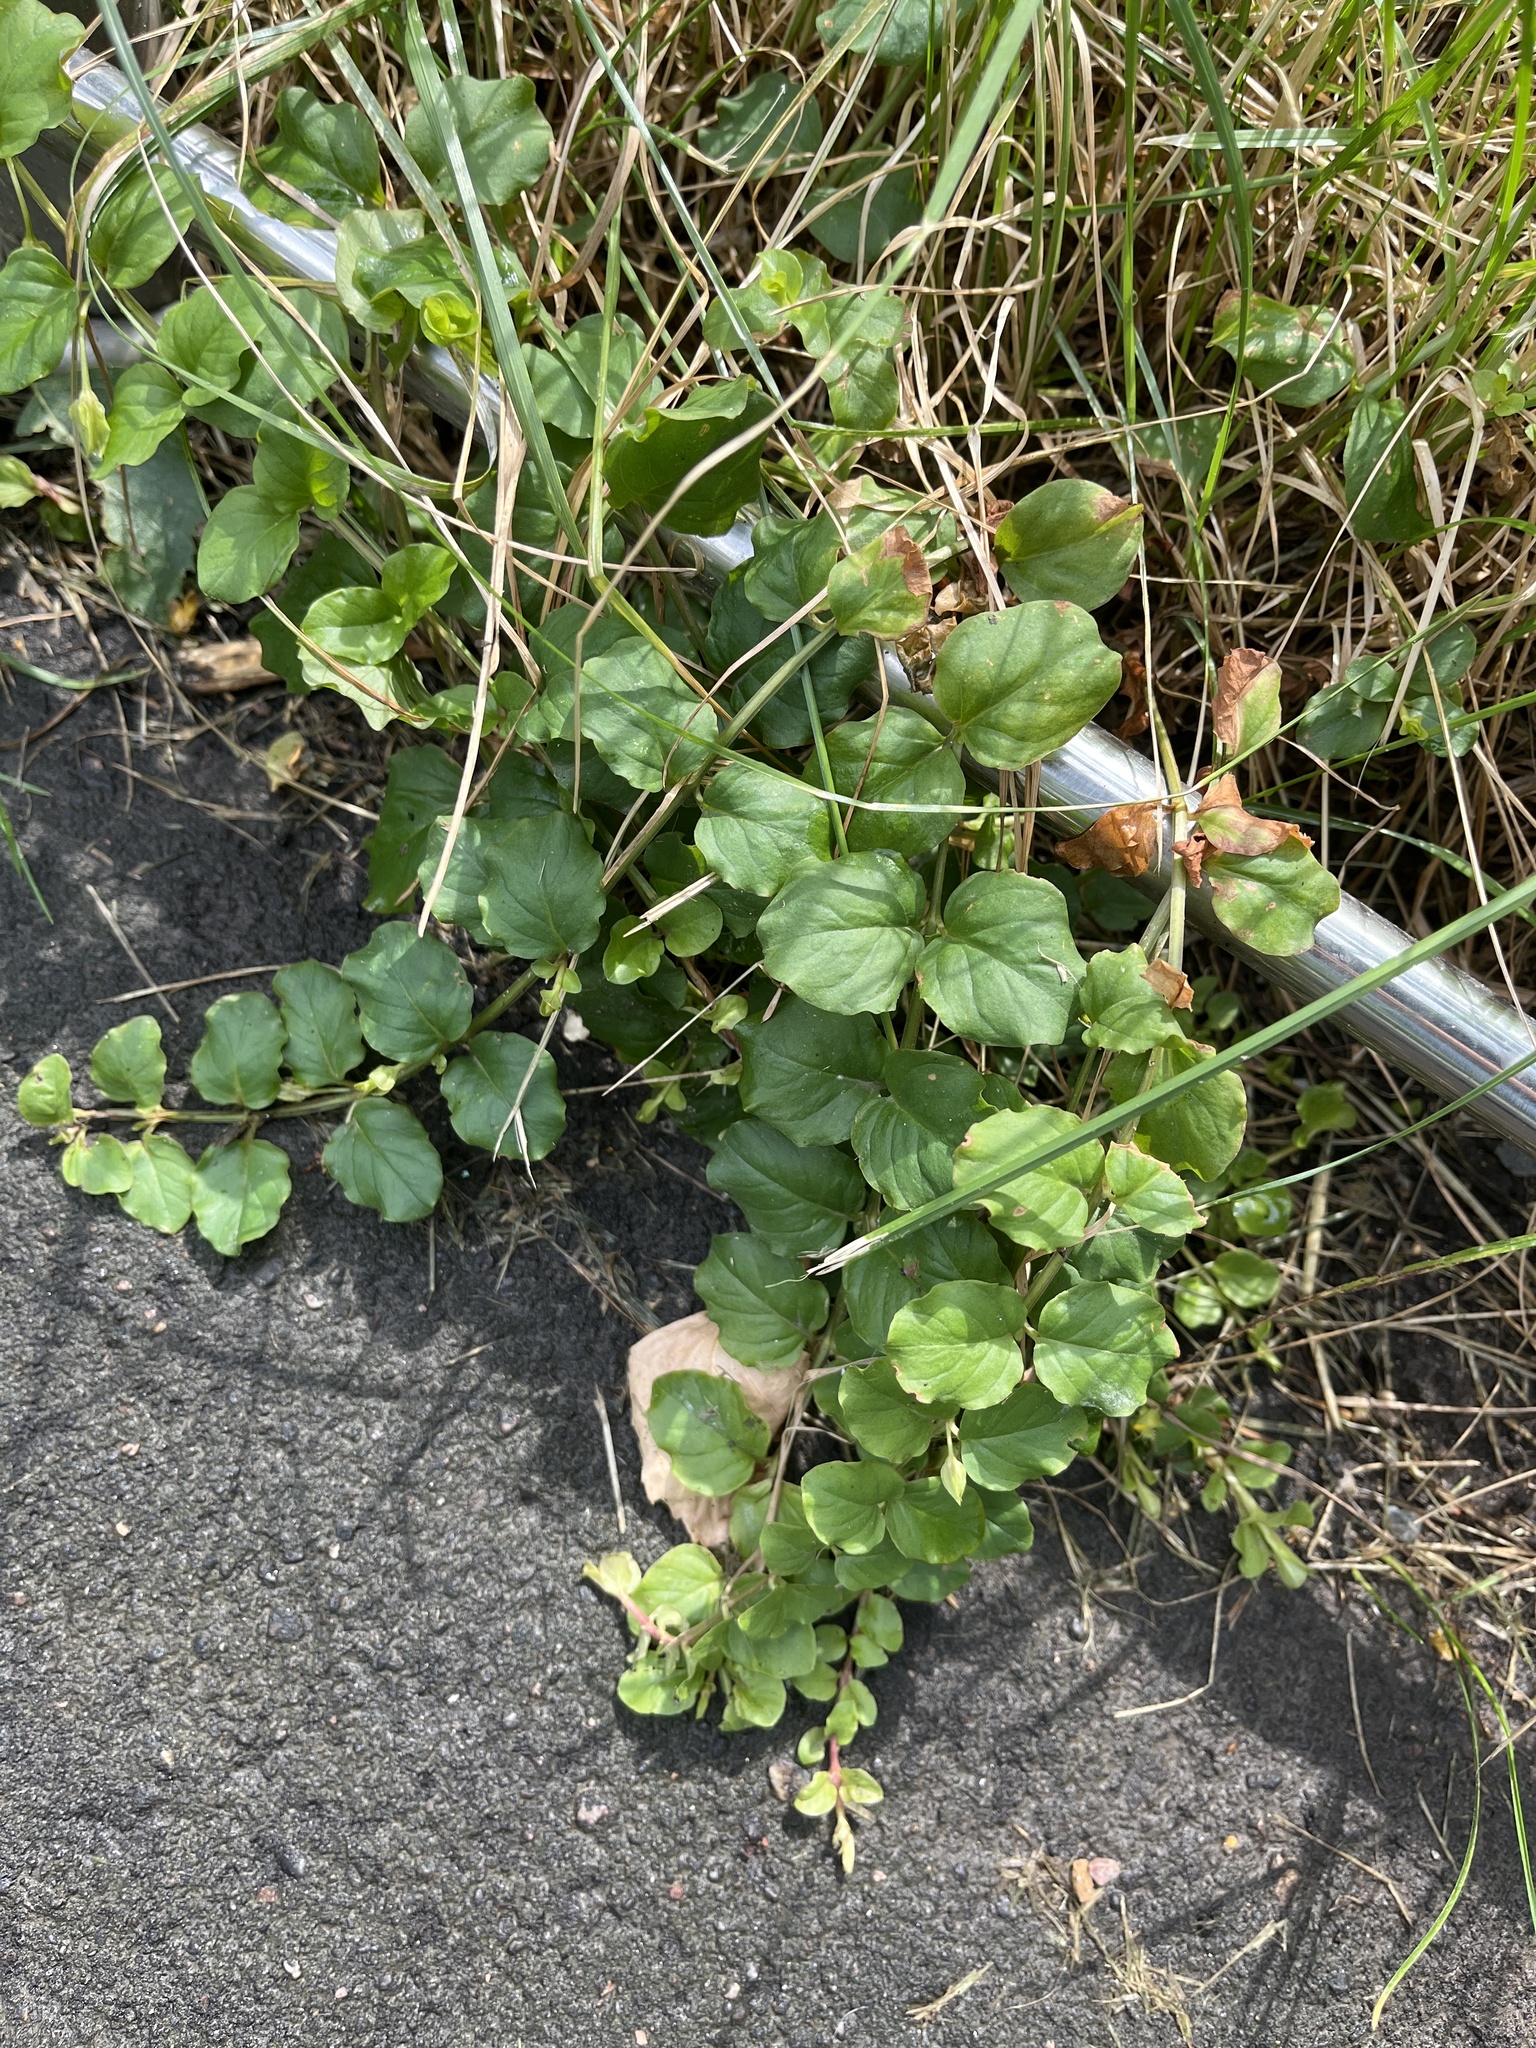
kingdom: Plantae
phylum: Tracheophyta
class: Magnoliopsida
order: Ericales
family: Primulaceae
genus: Lysimachia
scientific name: Lysimachia nummularia
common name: Moneywort
